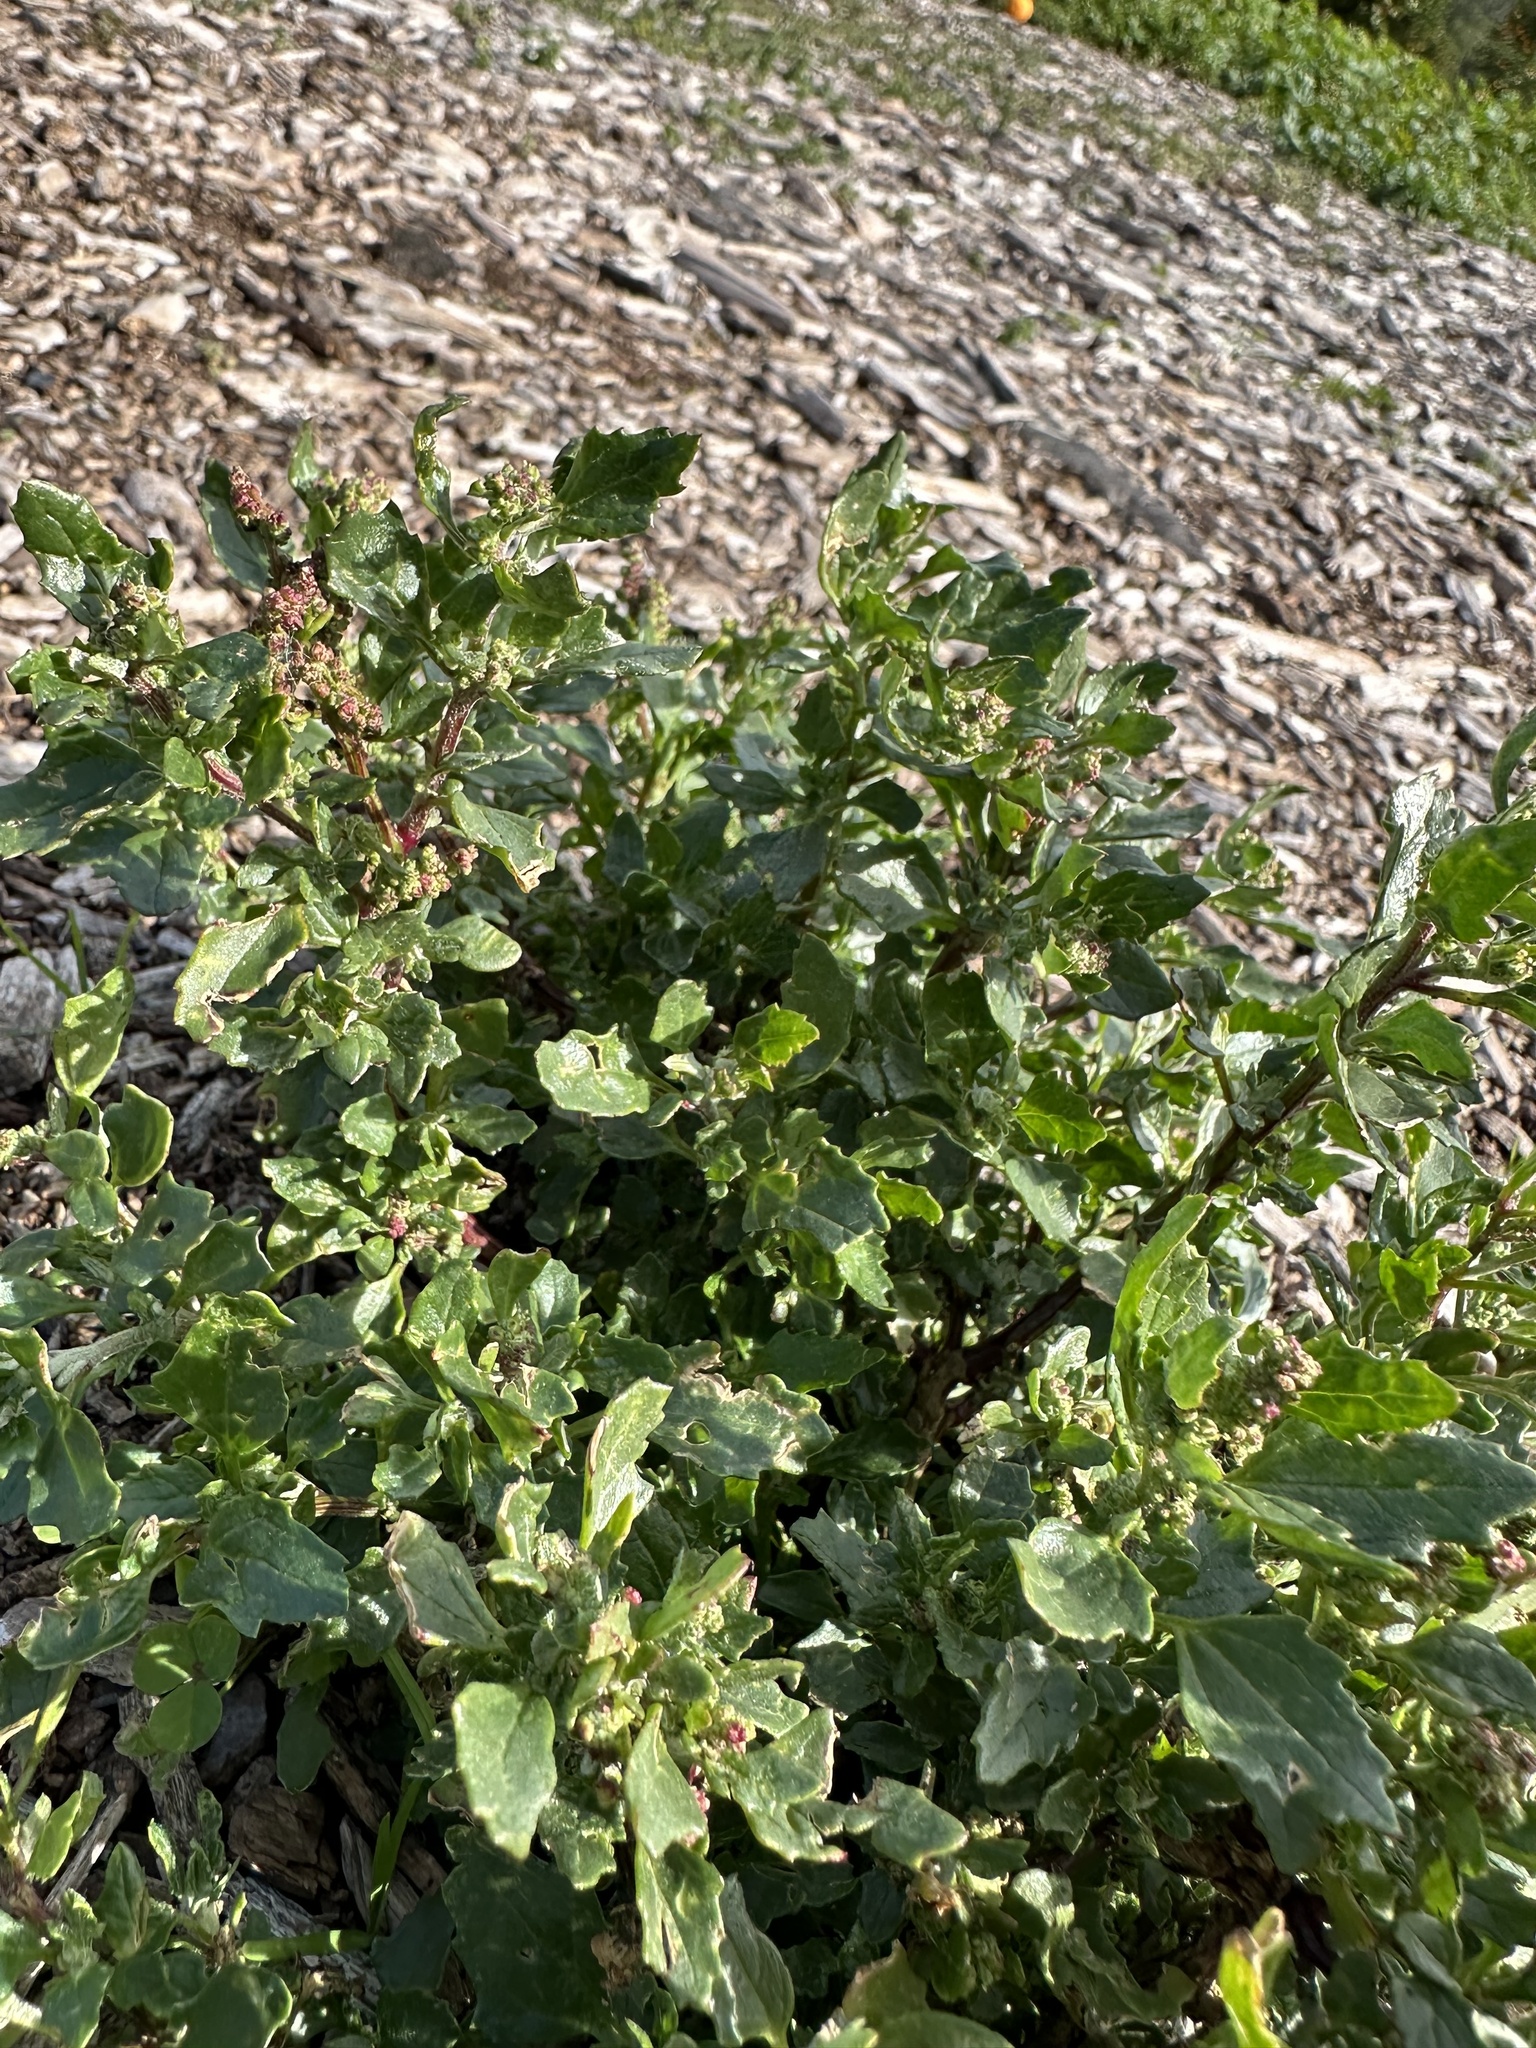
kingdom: Plantae
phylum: Tracheophyta
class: Magnoliopsida
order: Caryophyllales
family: Amaranthaceae
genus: Chenopodiastrum
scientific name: Chenopodiastrum murale
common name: Sowbane
